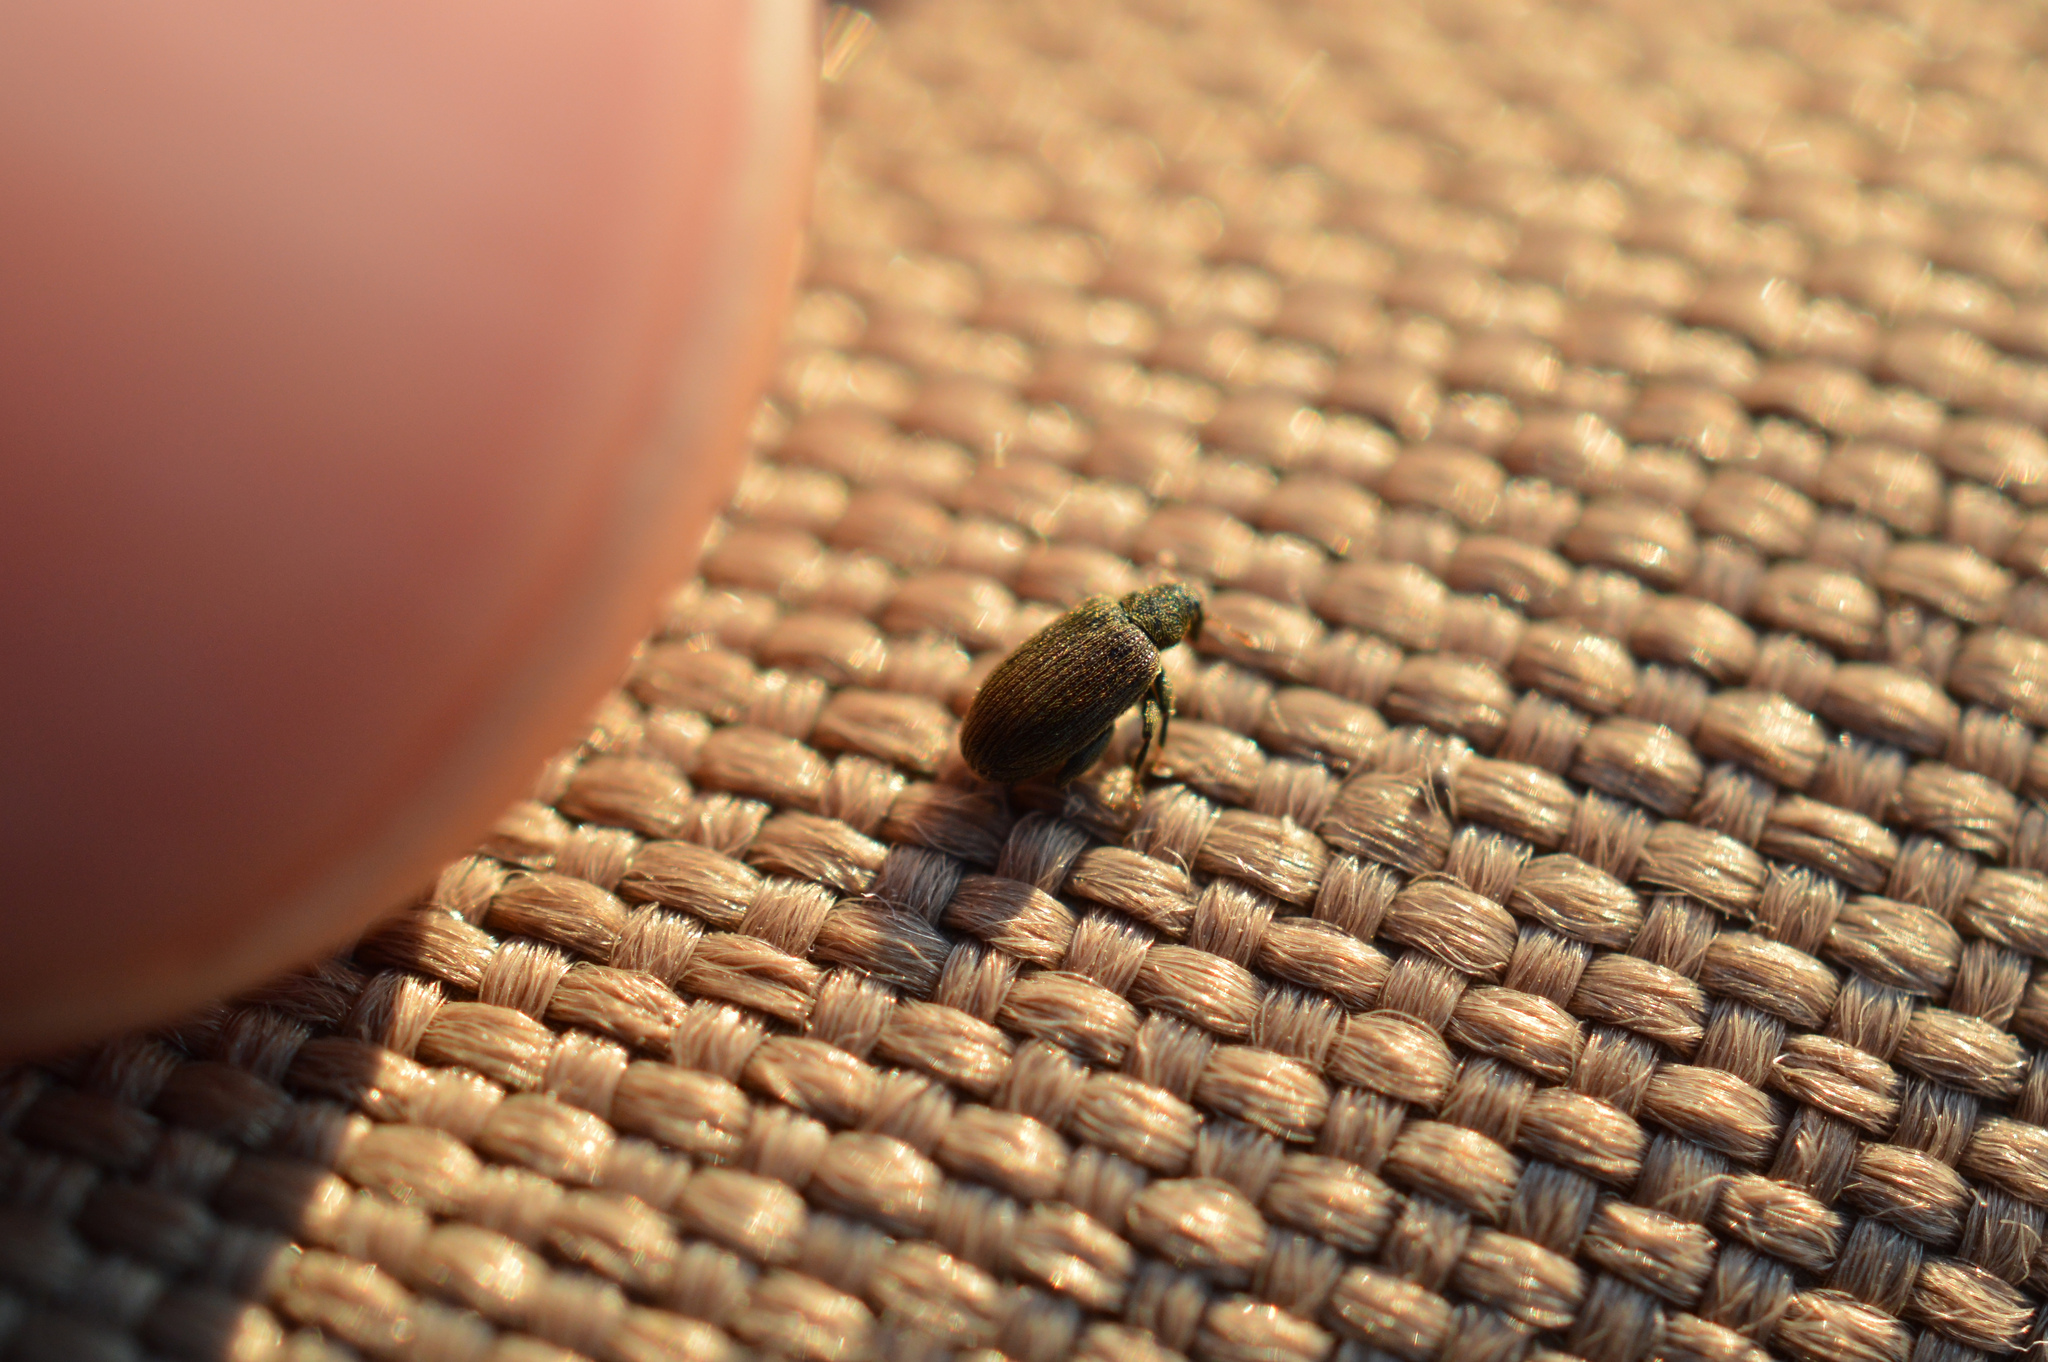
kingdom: Animalia
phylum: Arthropoda
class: Insecta
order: Coleoptera
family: Curculionidae
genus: Orchestes
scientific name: Orchestes fagi
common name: Beech leaf miner
